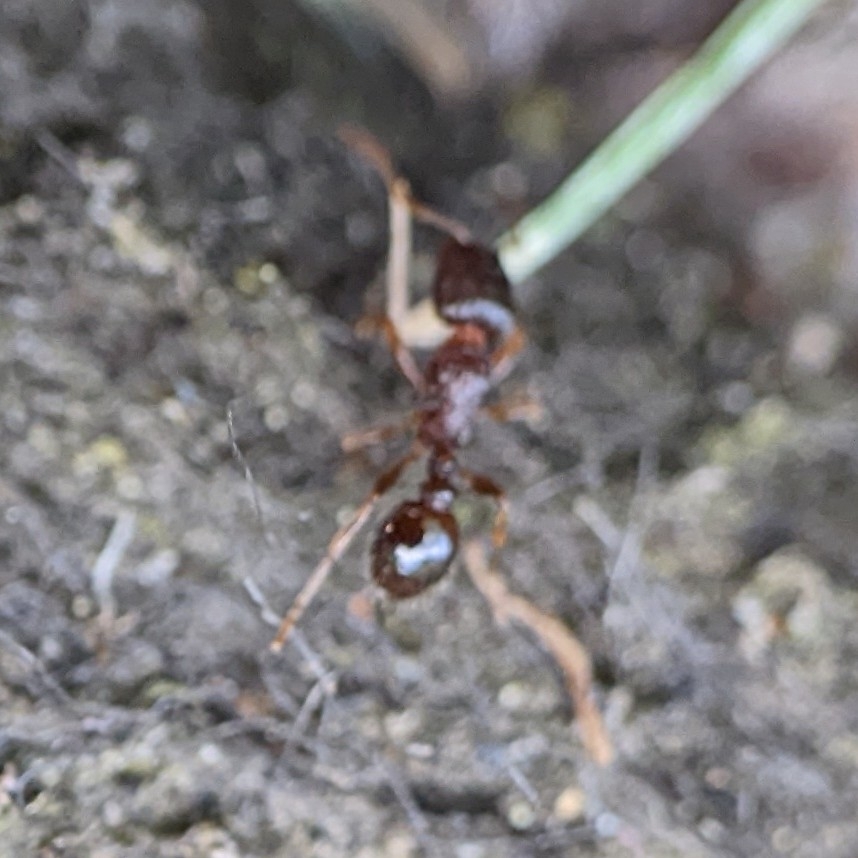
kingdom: Animalia
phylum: Arthropoda
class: Insecta
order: Hymenoptera
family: Formicidae
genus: Tetramorium
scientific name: Tetramorium immigrans
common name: Pavement ant
